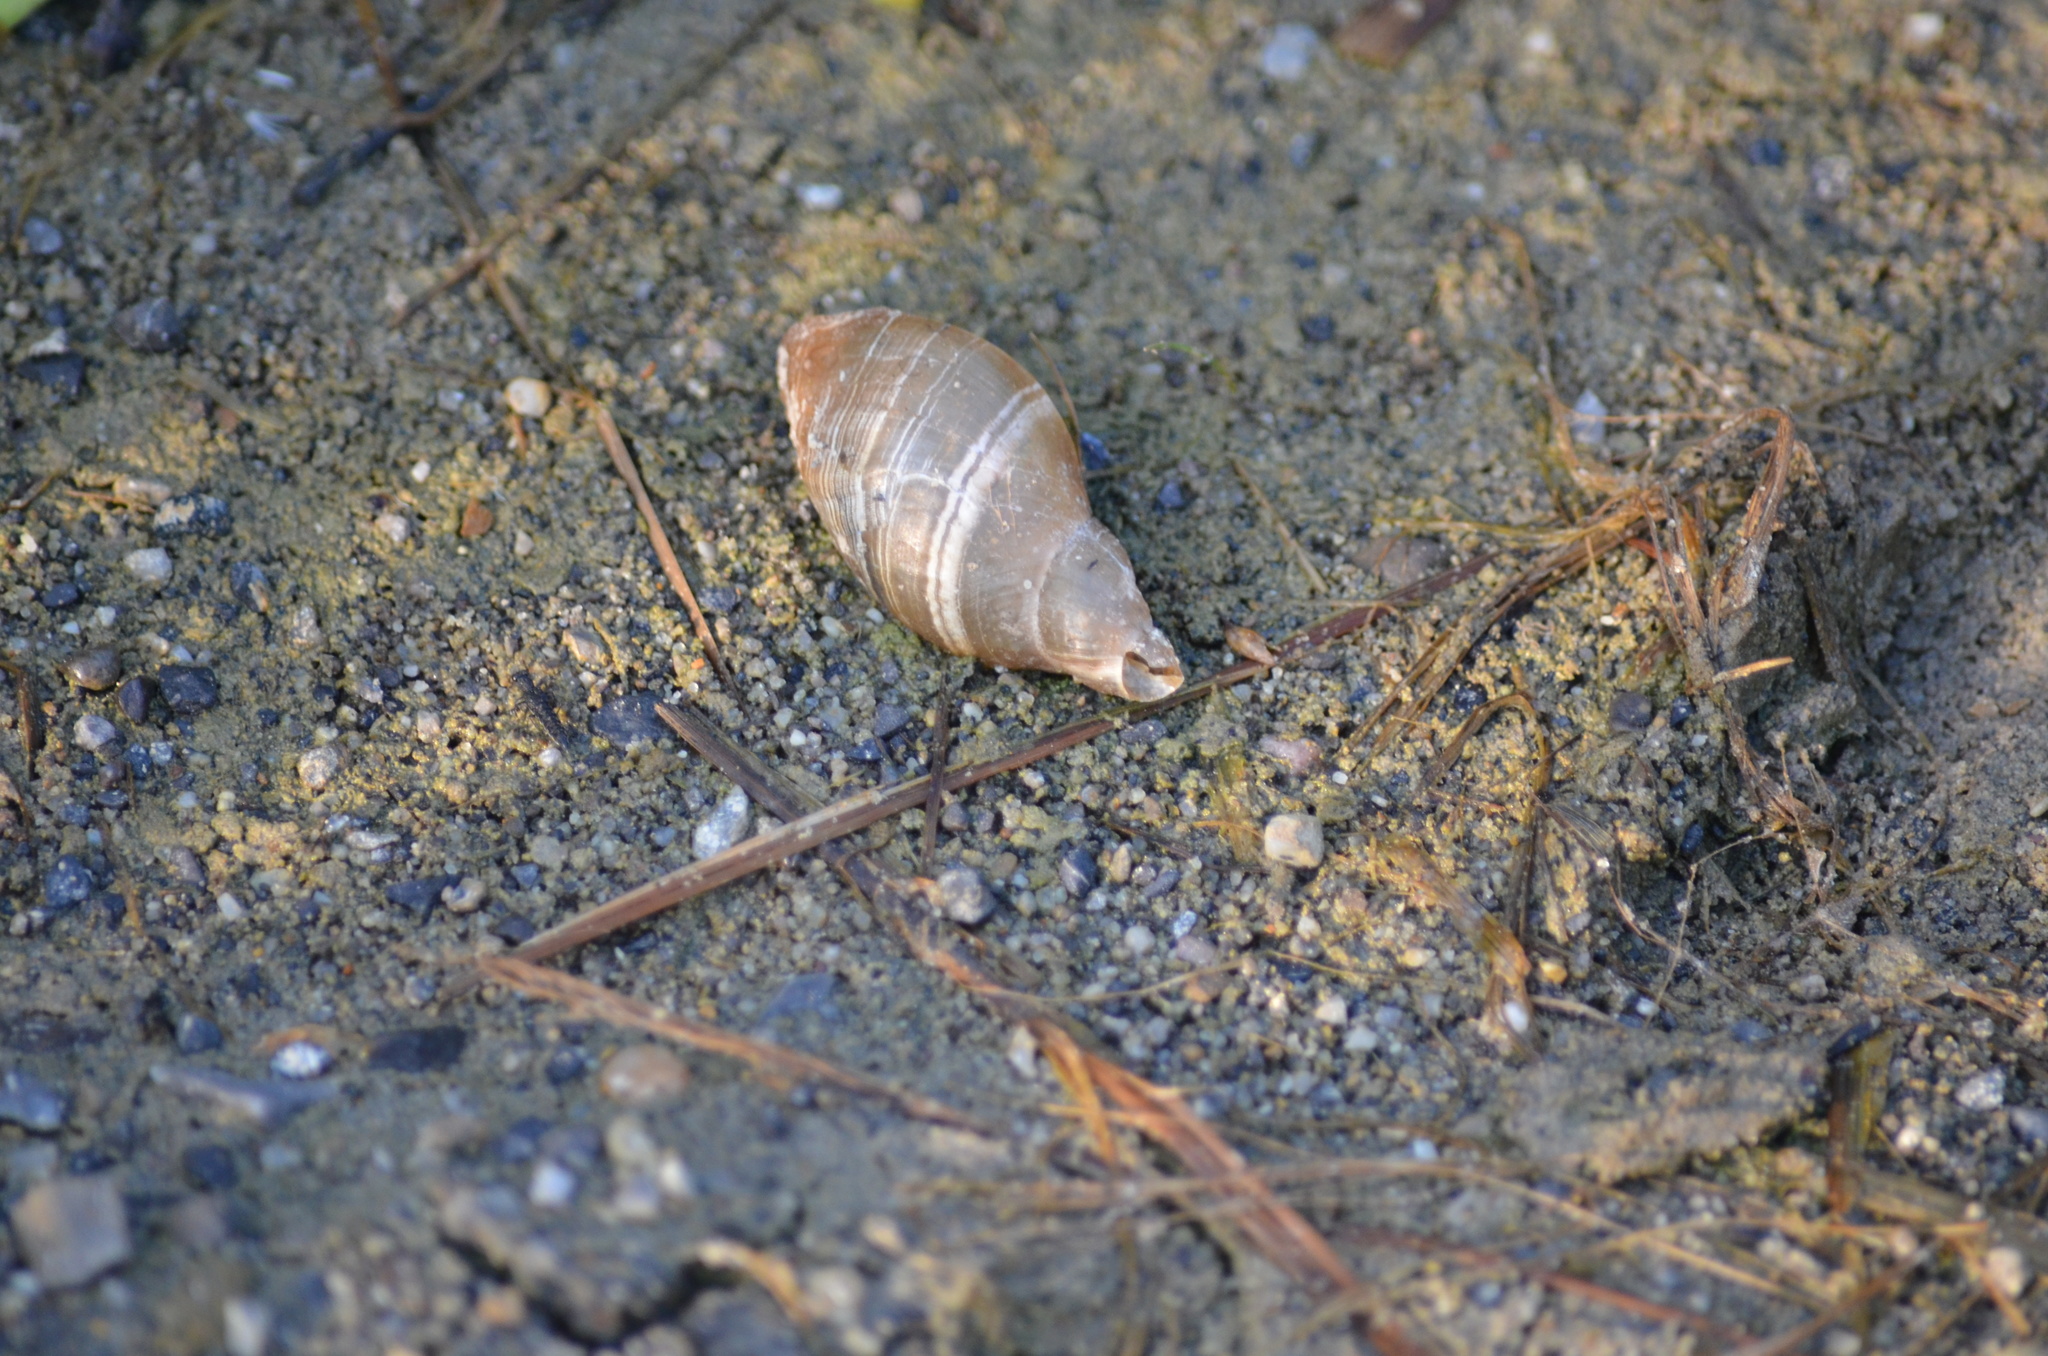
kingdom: Animalia
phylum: Mollusca
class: Gastropoda
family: Lymnaeidae
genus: Lymnaea
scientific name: Lymnaea stagnalis
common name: Great pond snail
